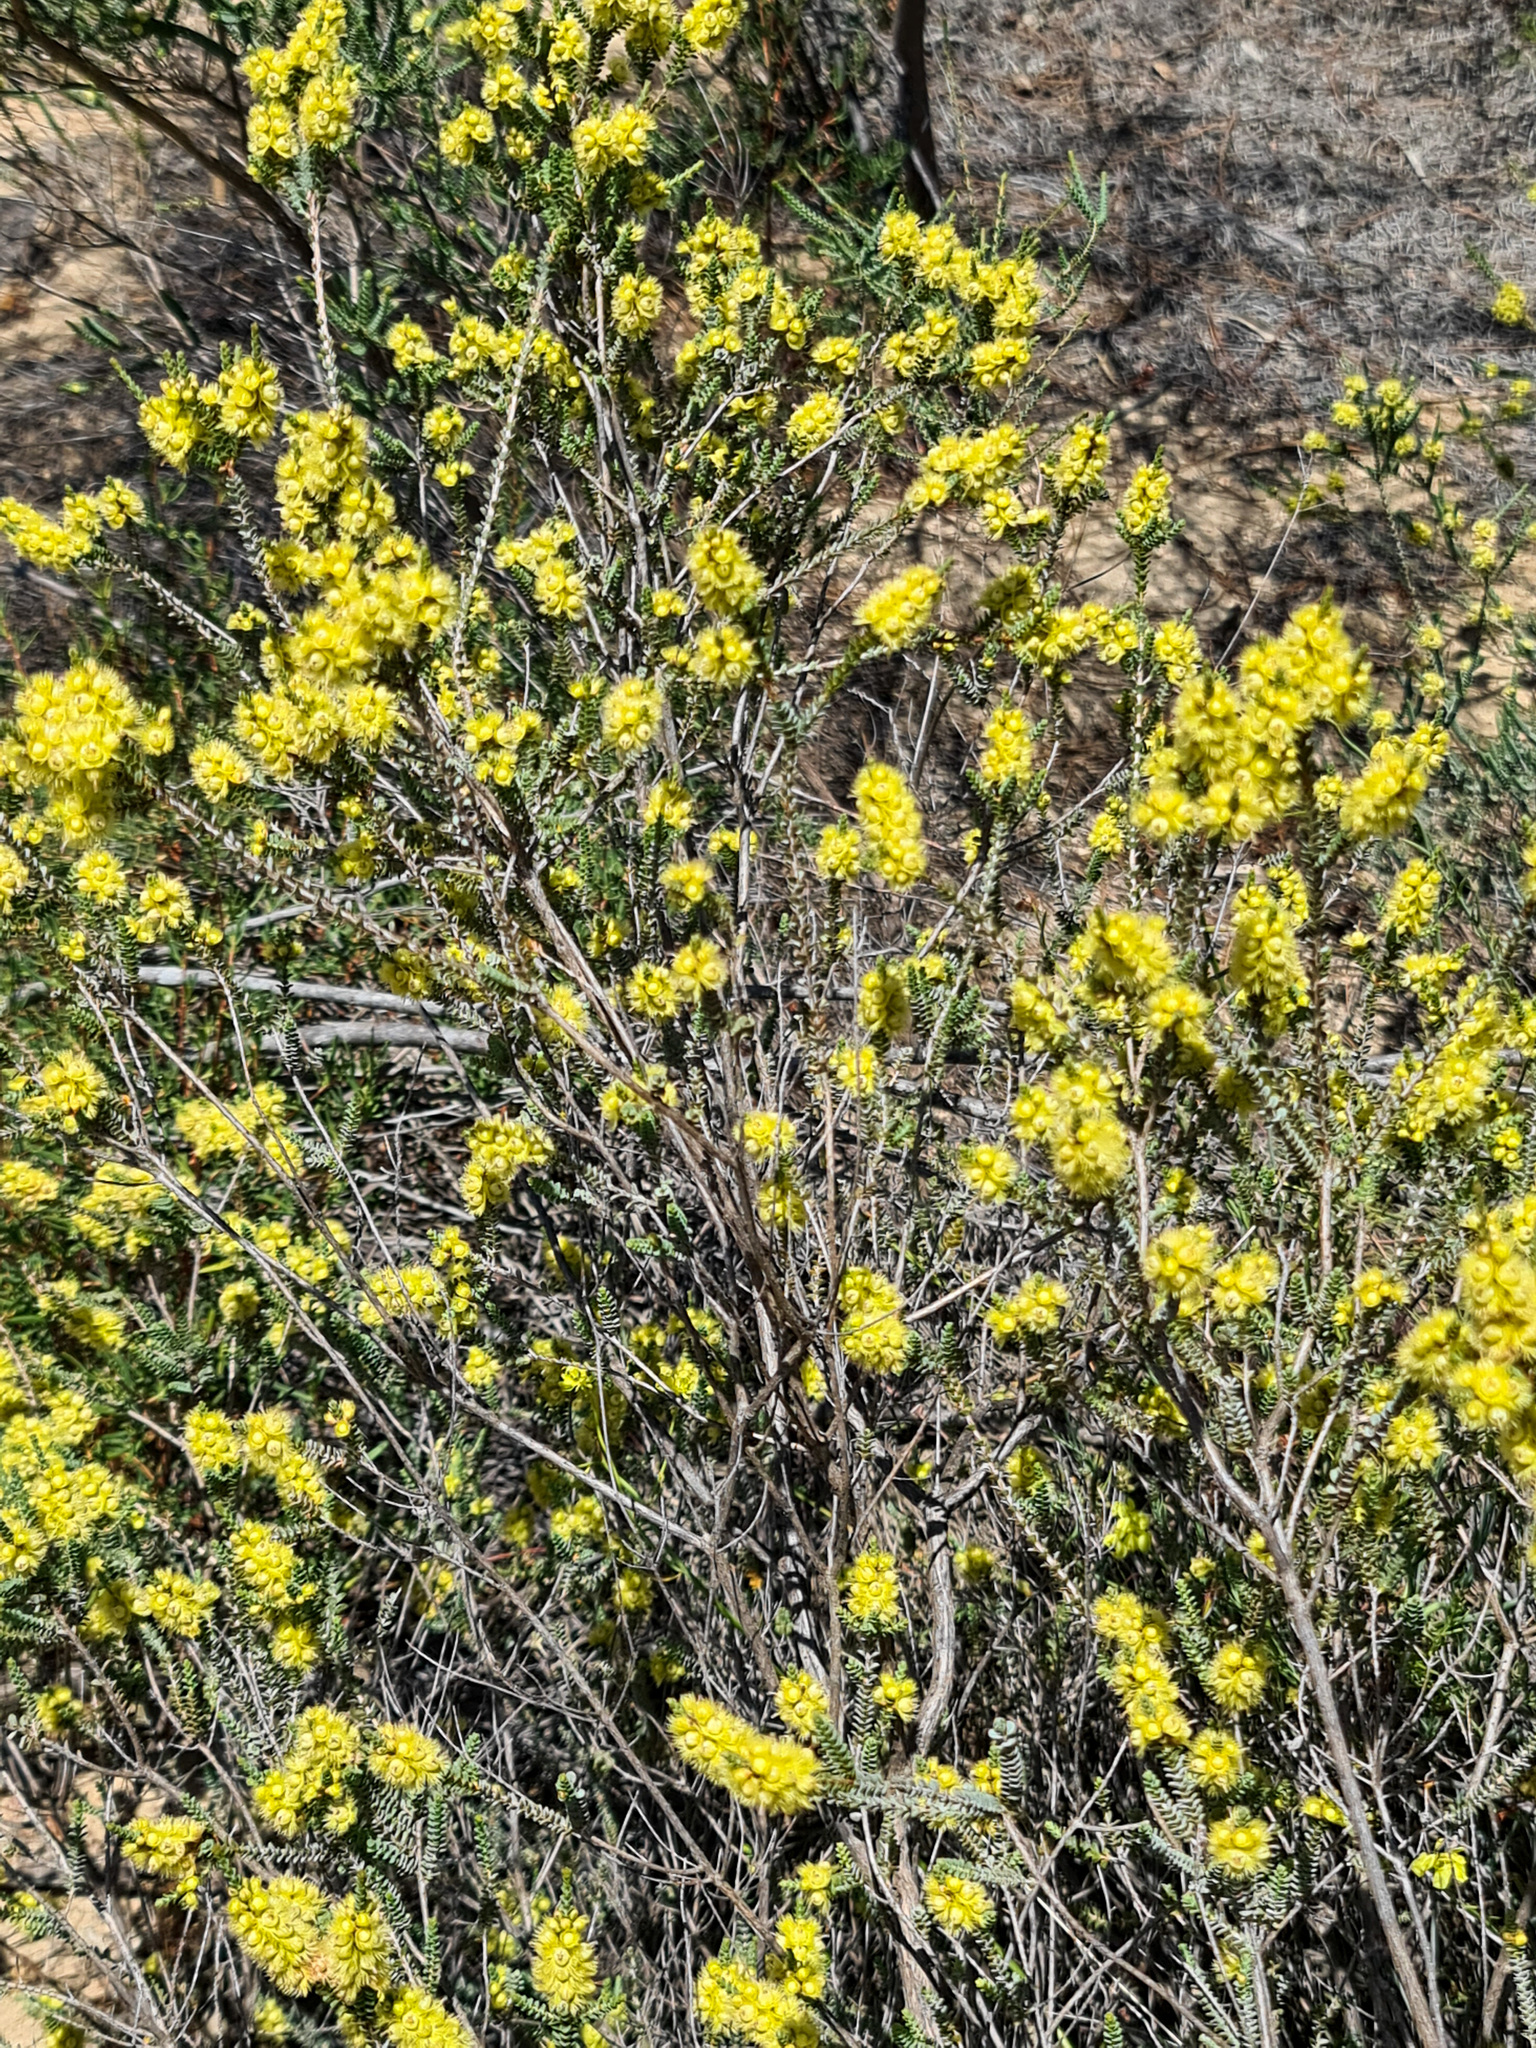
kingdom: Plantae
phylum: Tracheophyta
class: Magnoliopsida
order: Myrtales
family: Myrtaceae
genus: Verticordia
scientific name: Verticordia lepidophylla
